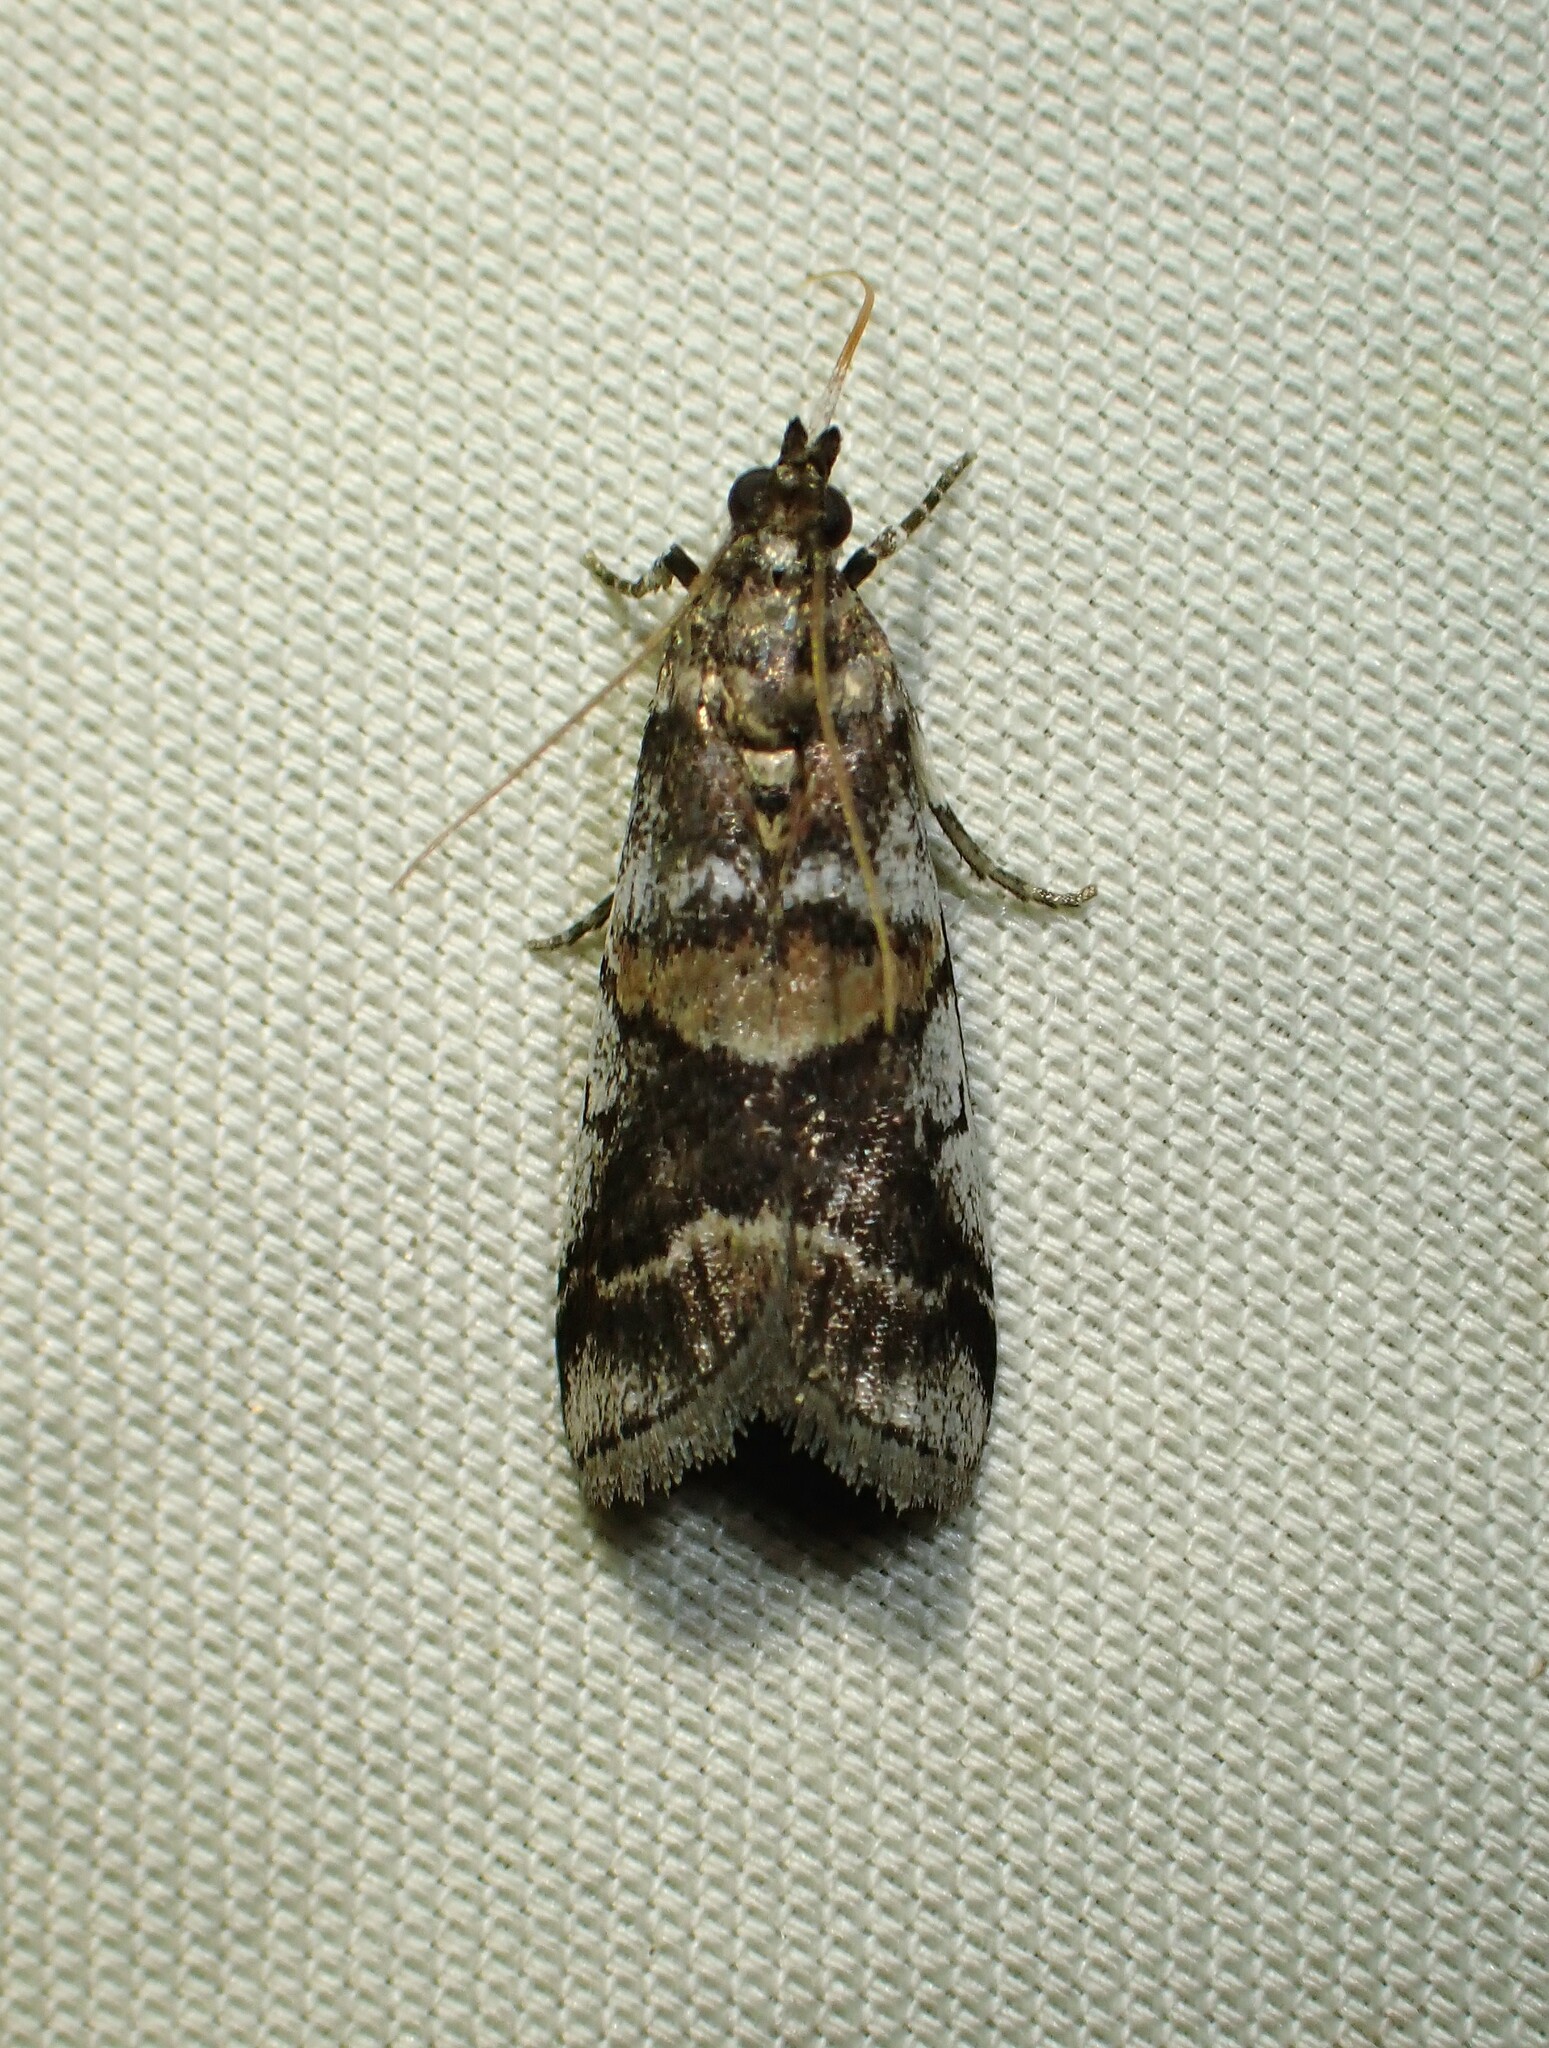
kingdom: Animalia
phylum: Arthropoda
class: Insecta
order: Lepidoptera
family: Pyralidae
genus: Acrobasis
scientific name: Acrobasis indigenella
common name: Leaf crumpler moth
